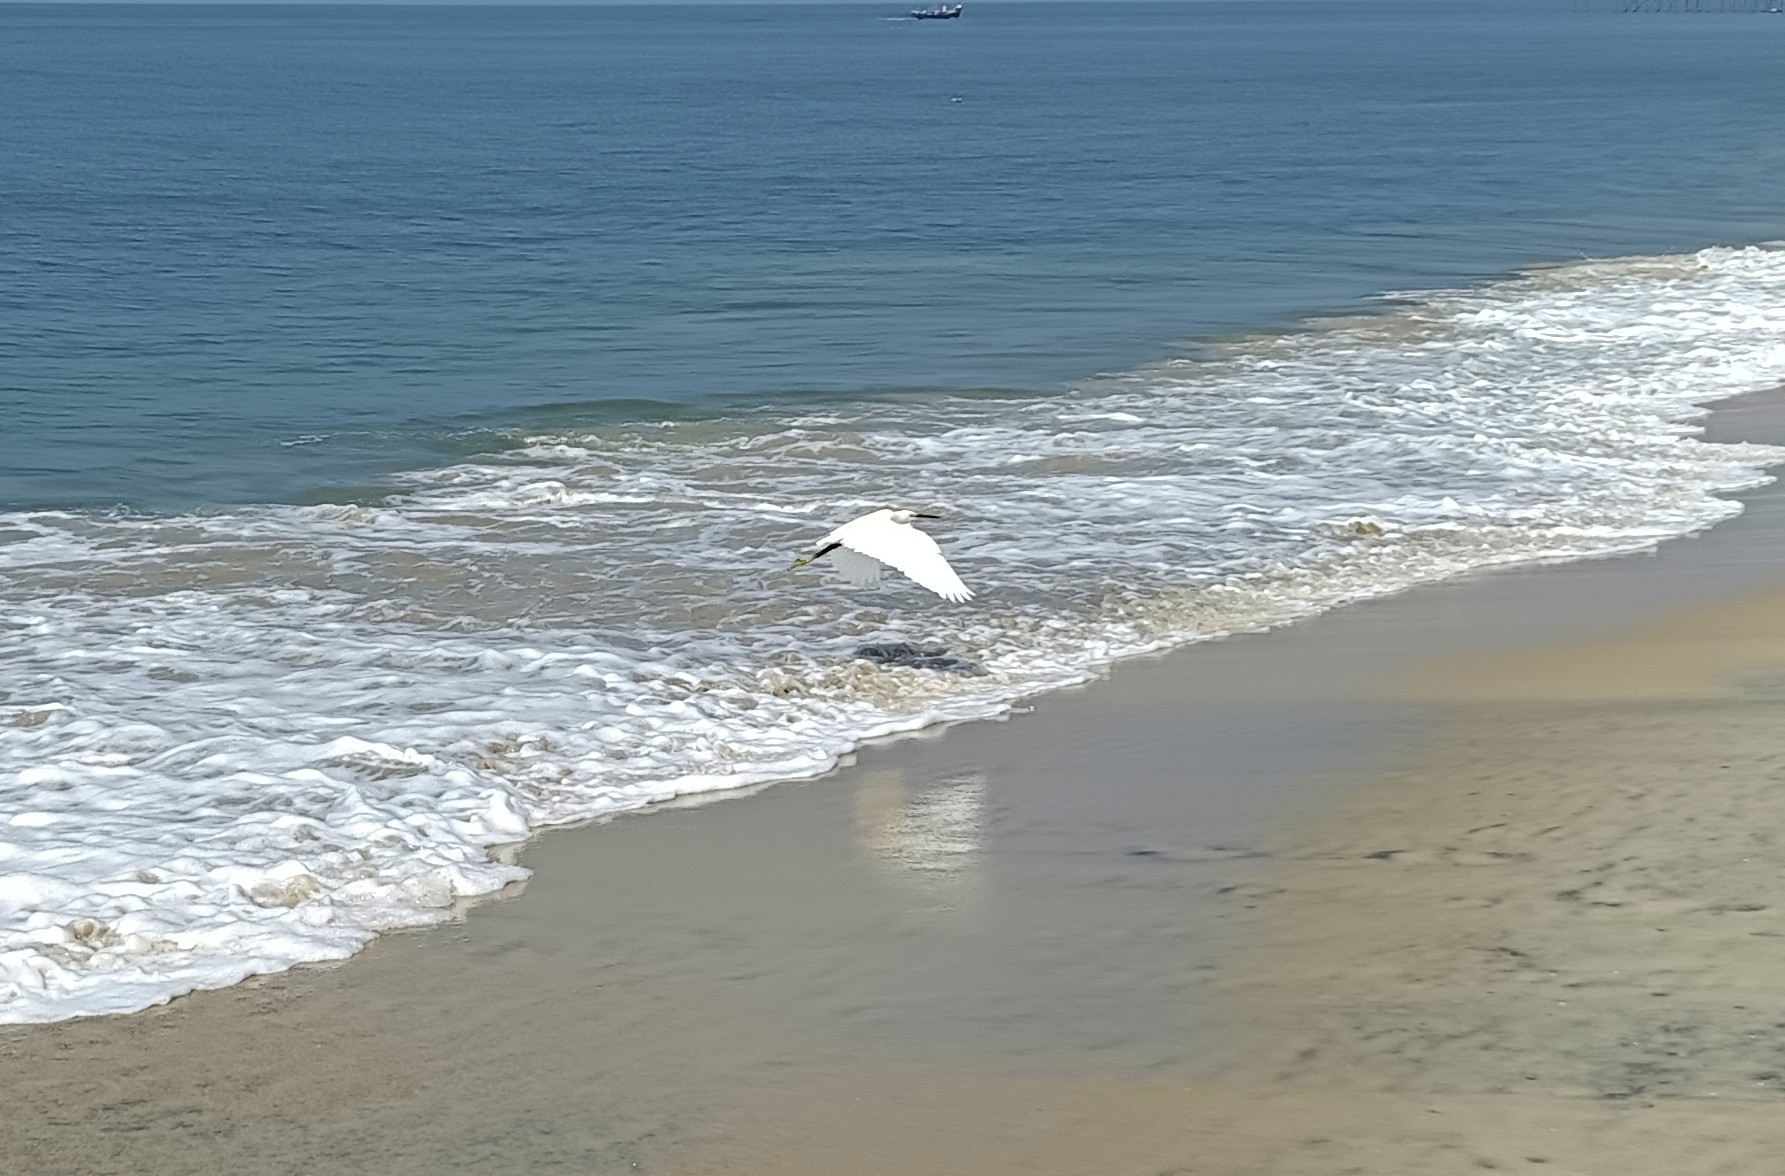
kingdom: Animalia
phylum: Chordata
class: Aves
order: Pelecaniformes
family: Ardeidae
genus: Egretta
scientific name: Egretta garzetta
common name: Little egret
